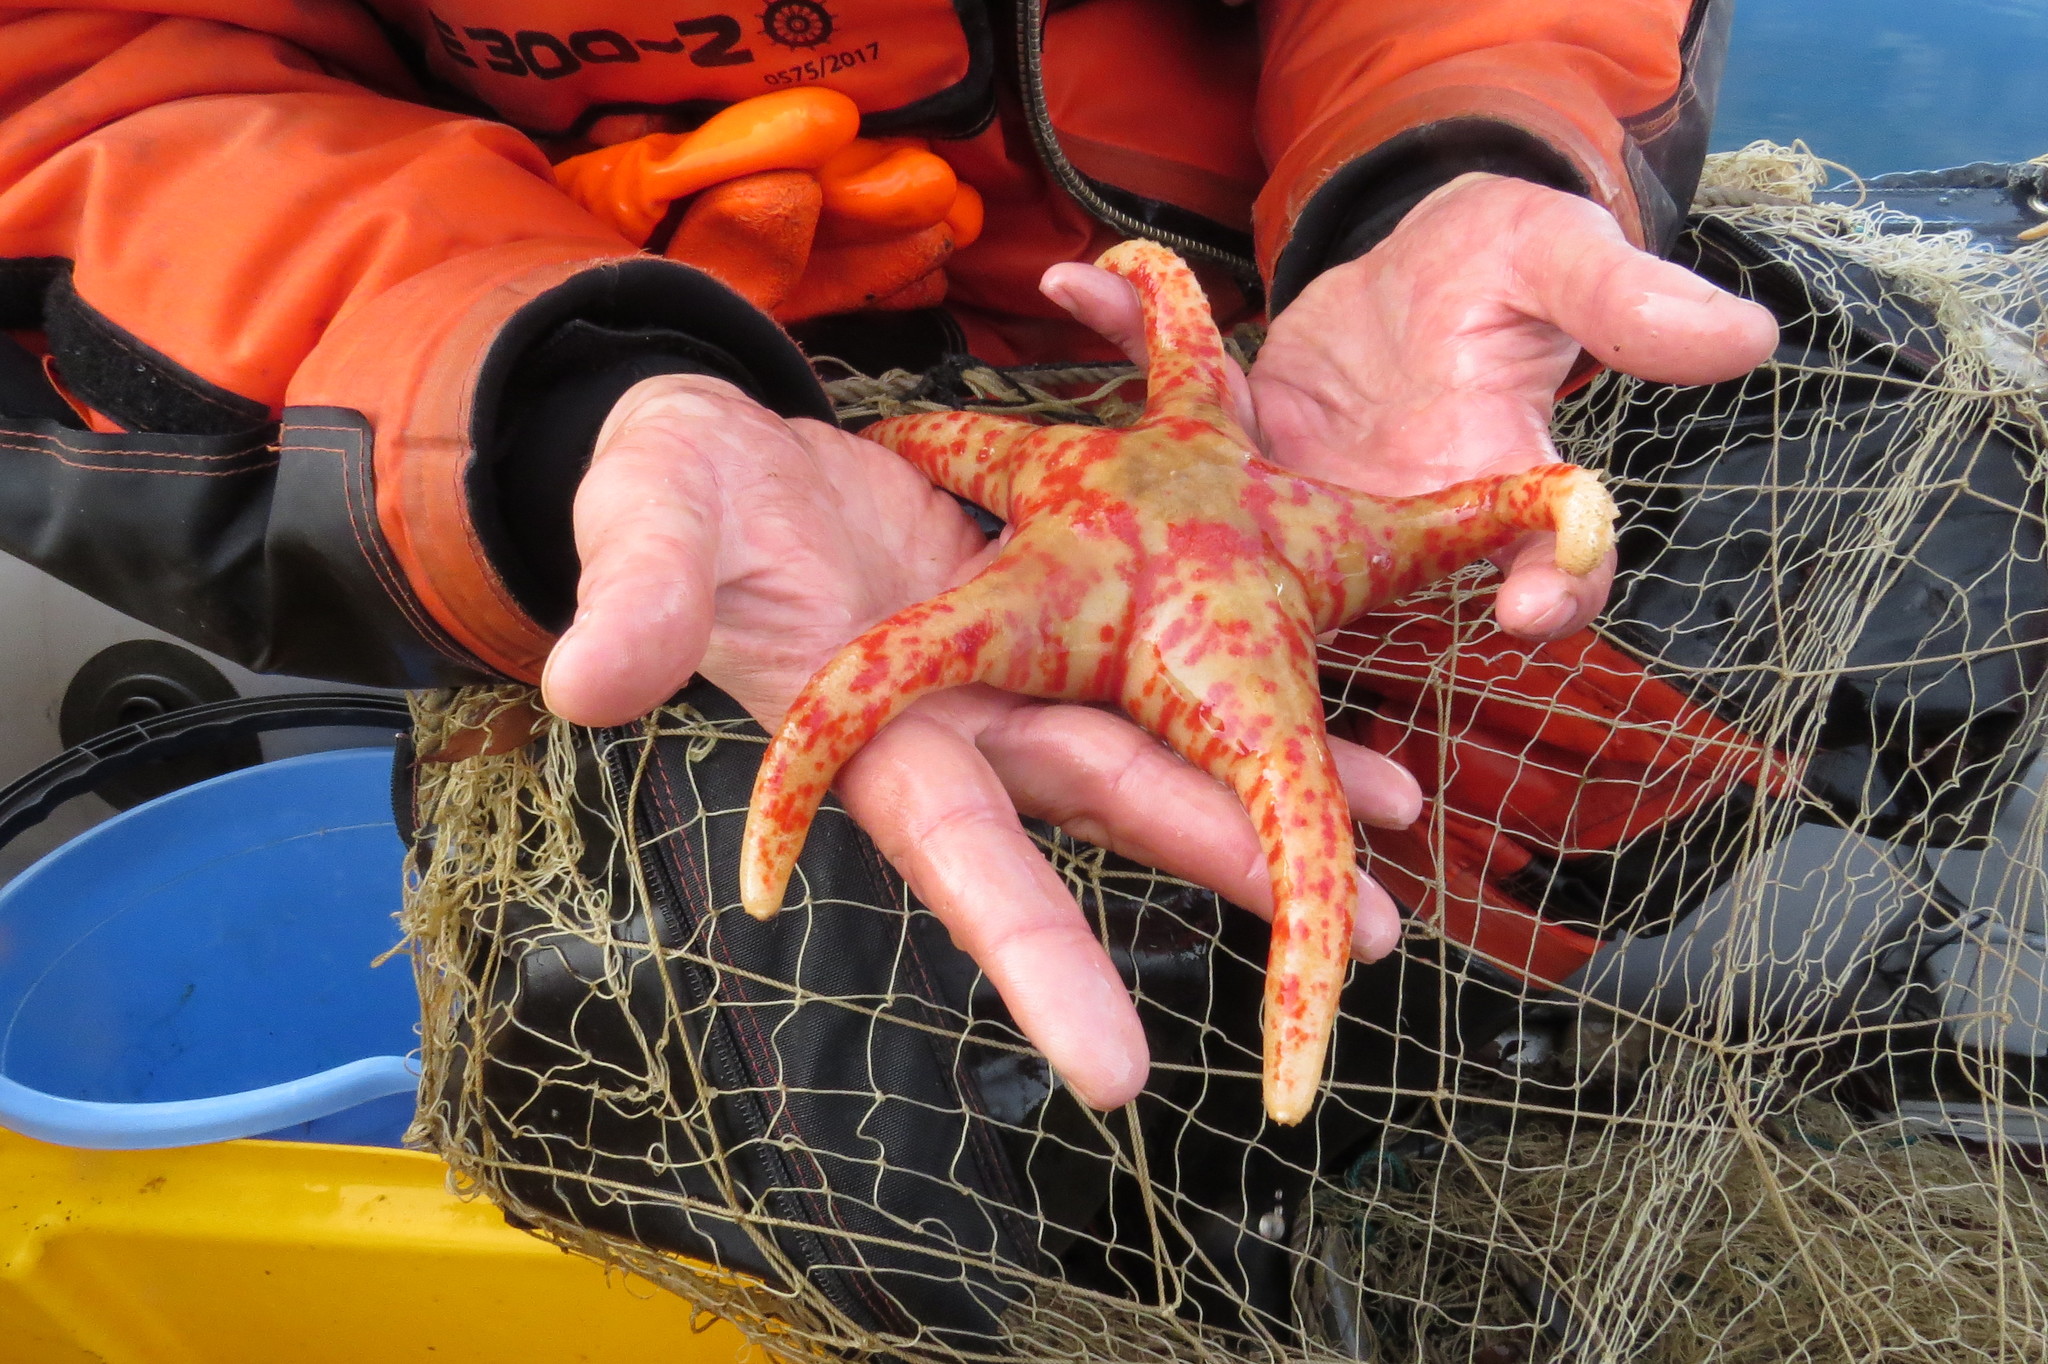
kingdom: Animalia
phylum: Echinodermata
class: Asteroidea
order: Valvatida
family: Asterinidae
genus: Perknaster
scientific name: Perknaster aurorae
